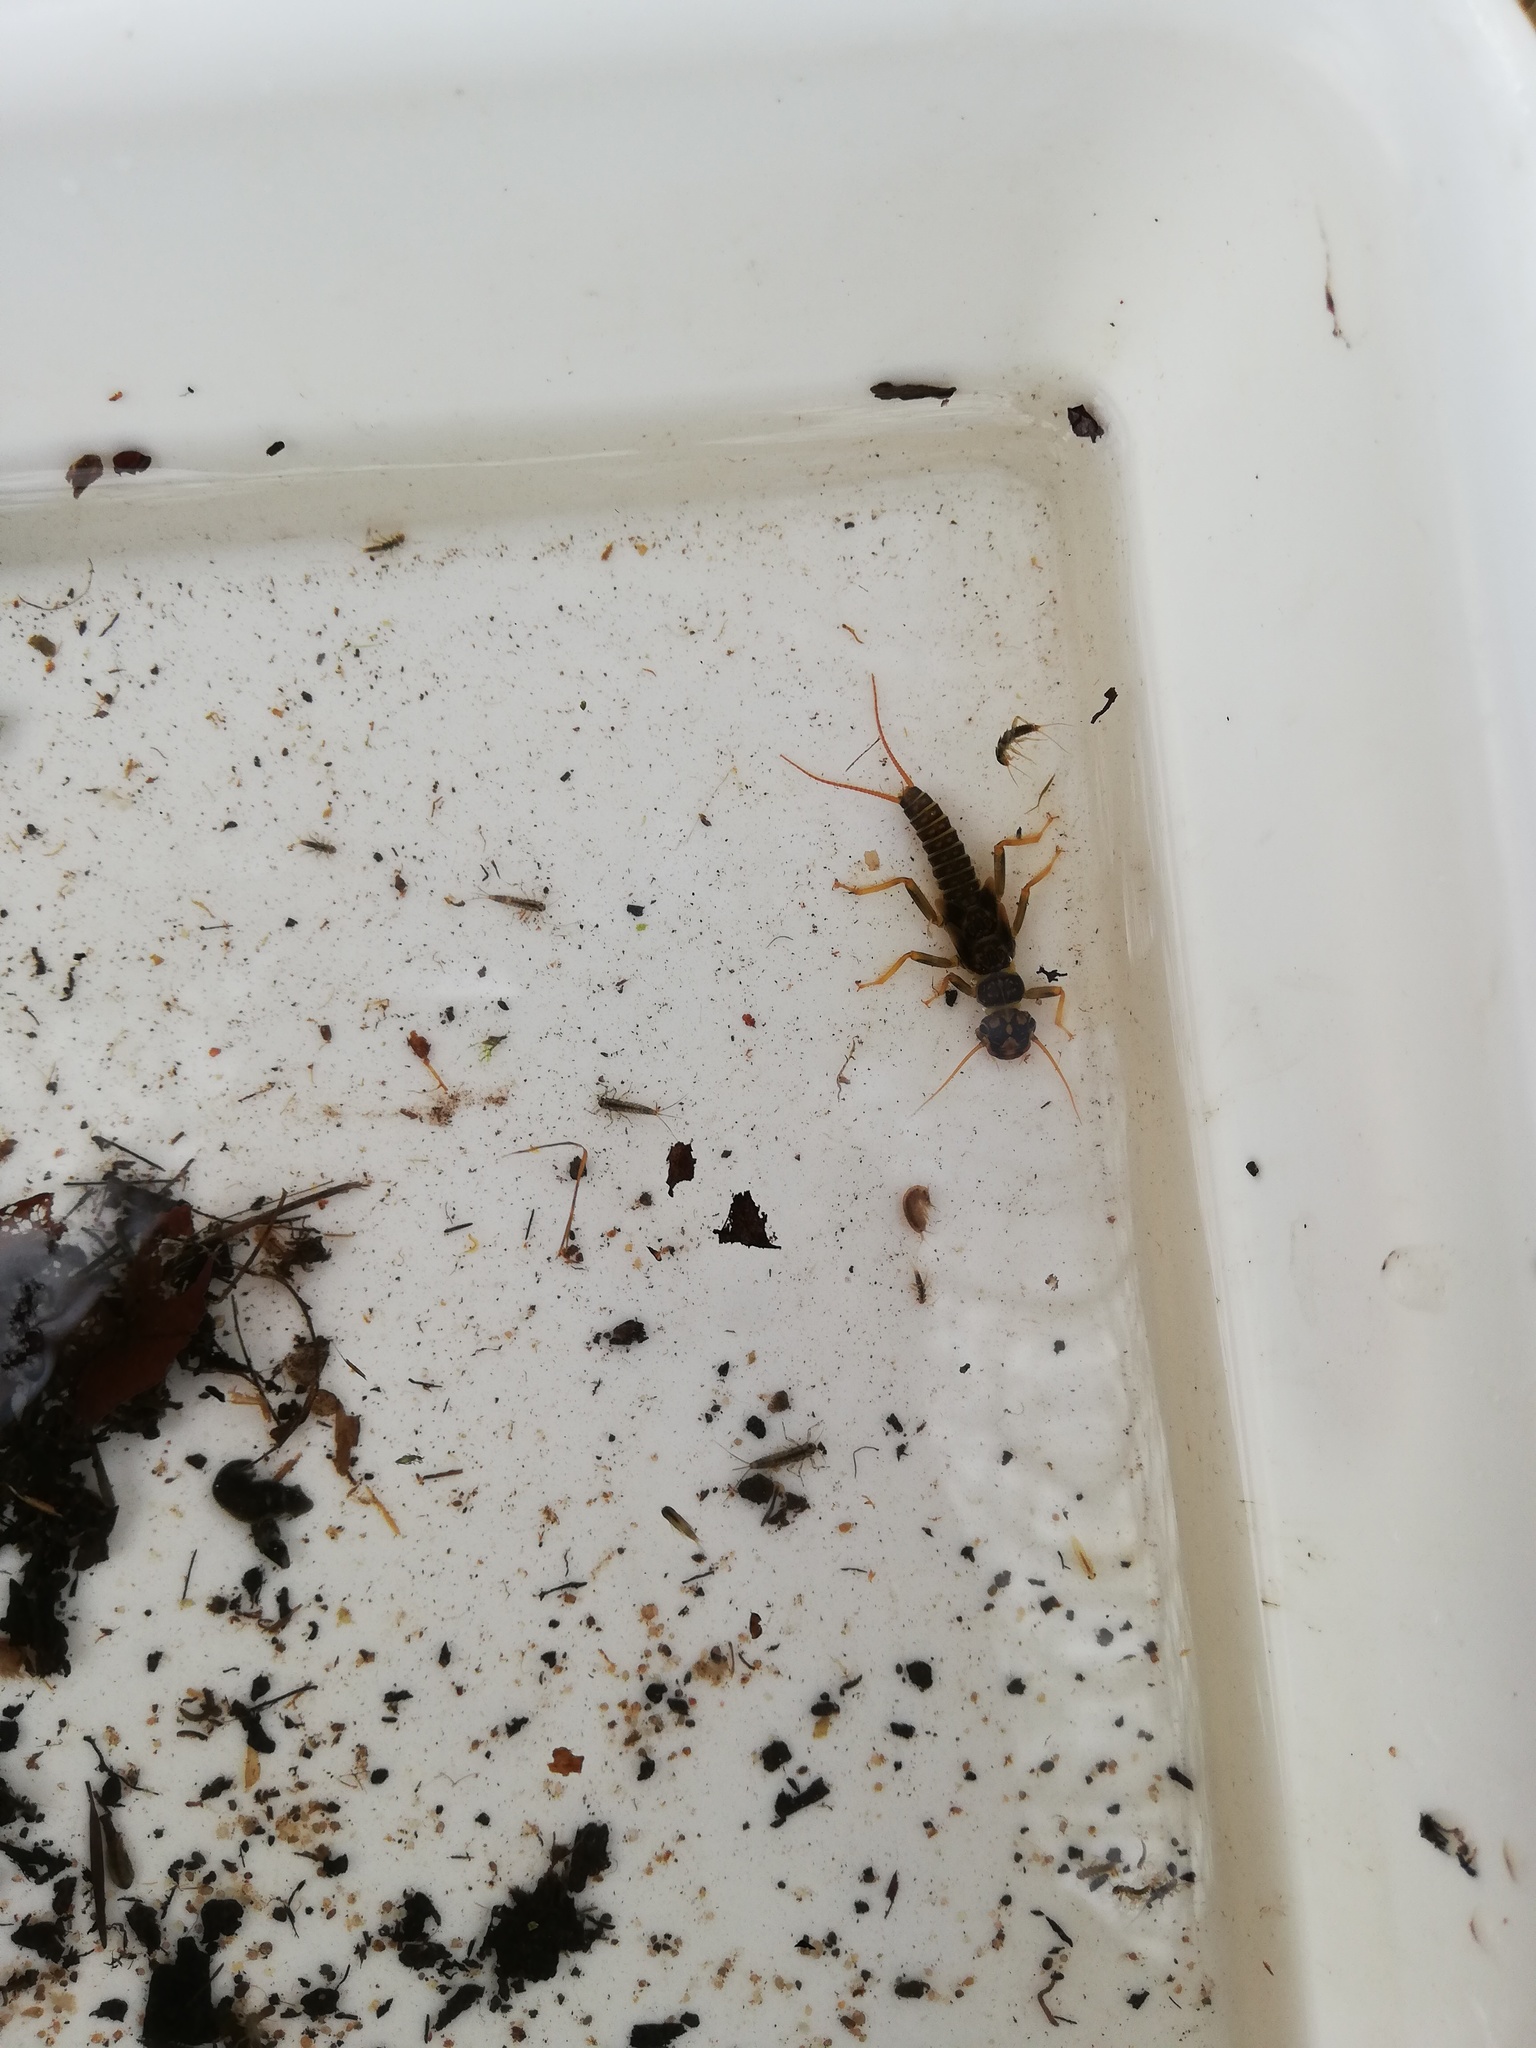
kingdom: Animalia
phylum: Arthropoda
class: Insecta
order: Plecoptera
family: Perlodidae
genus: Perlodes
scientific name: Perlodes microcephalus
